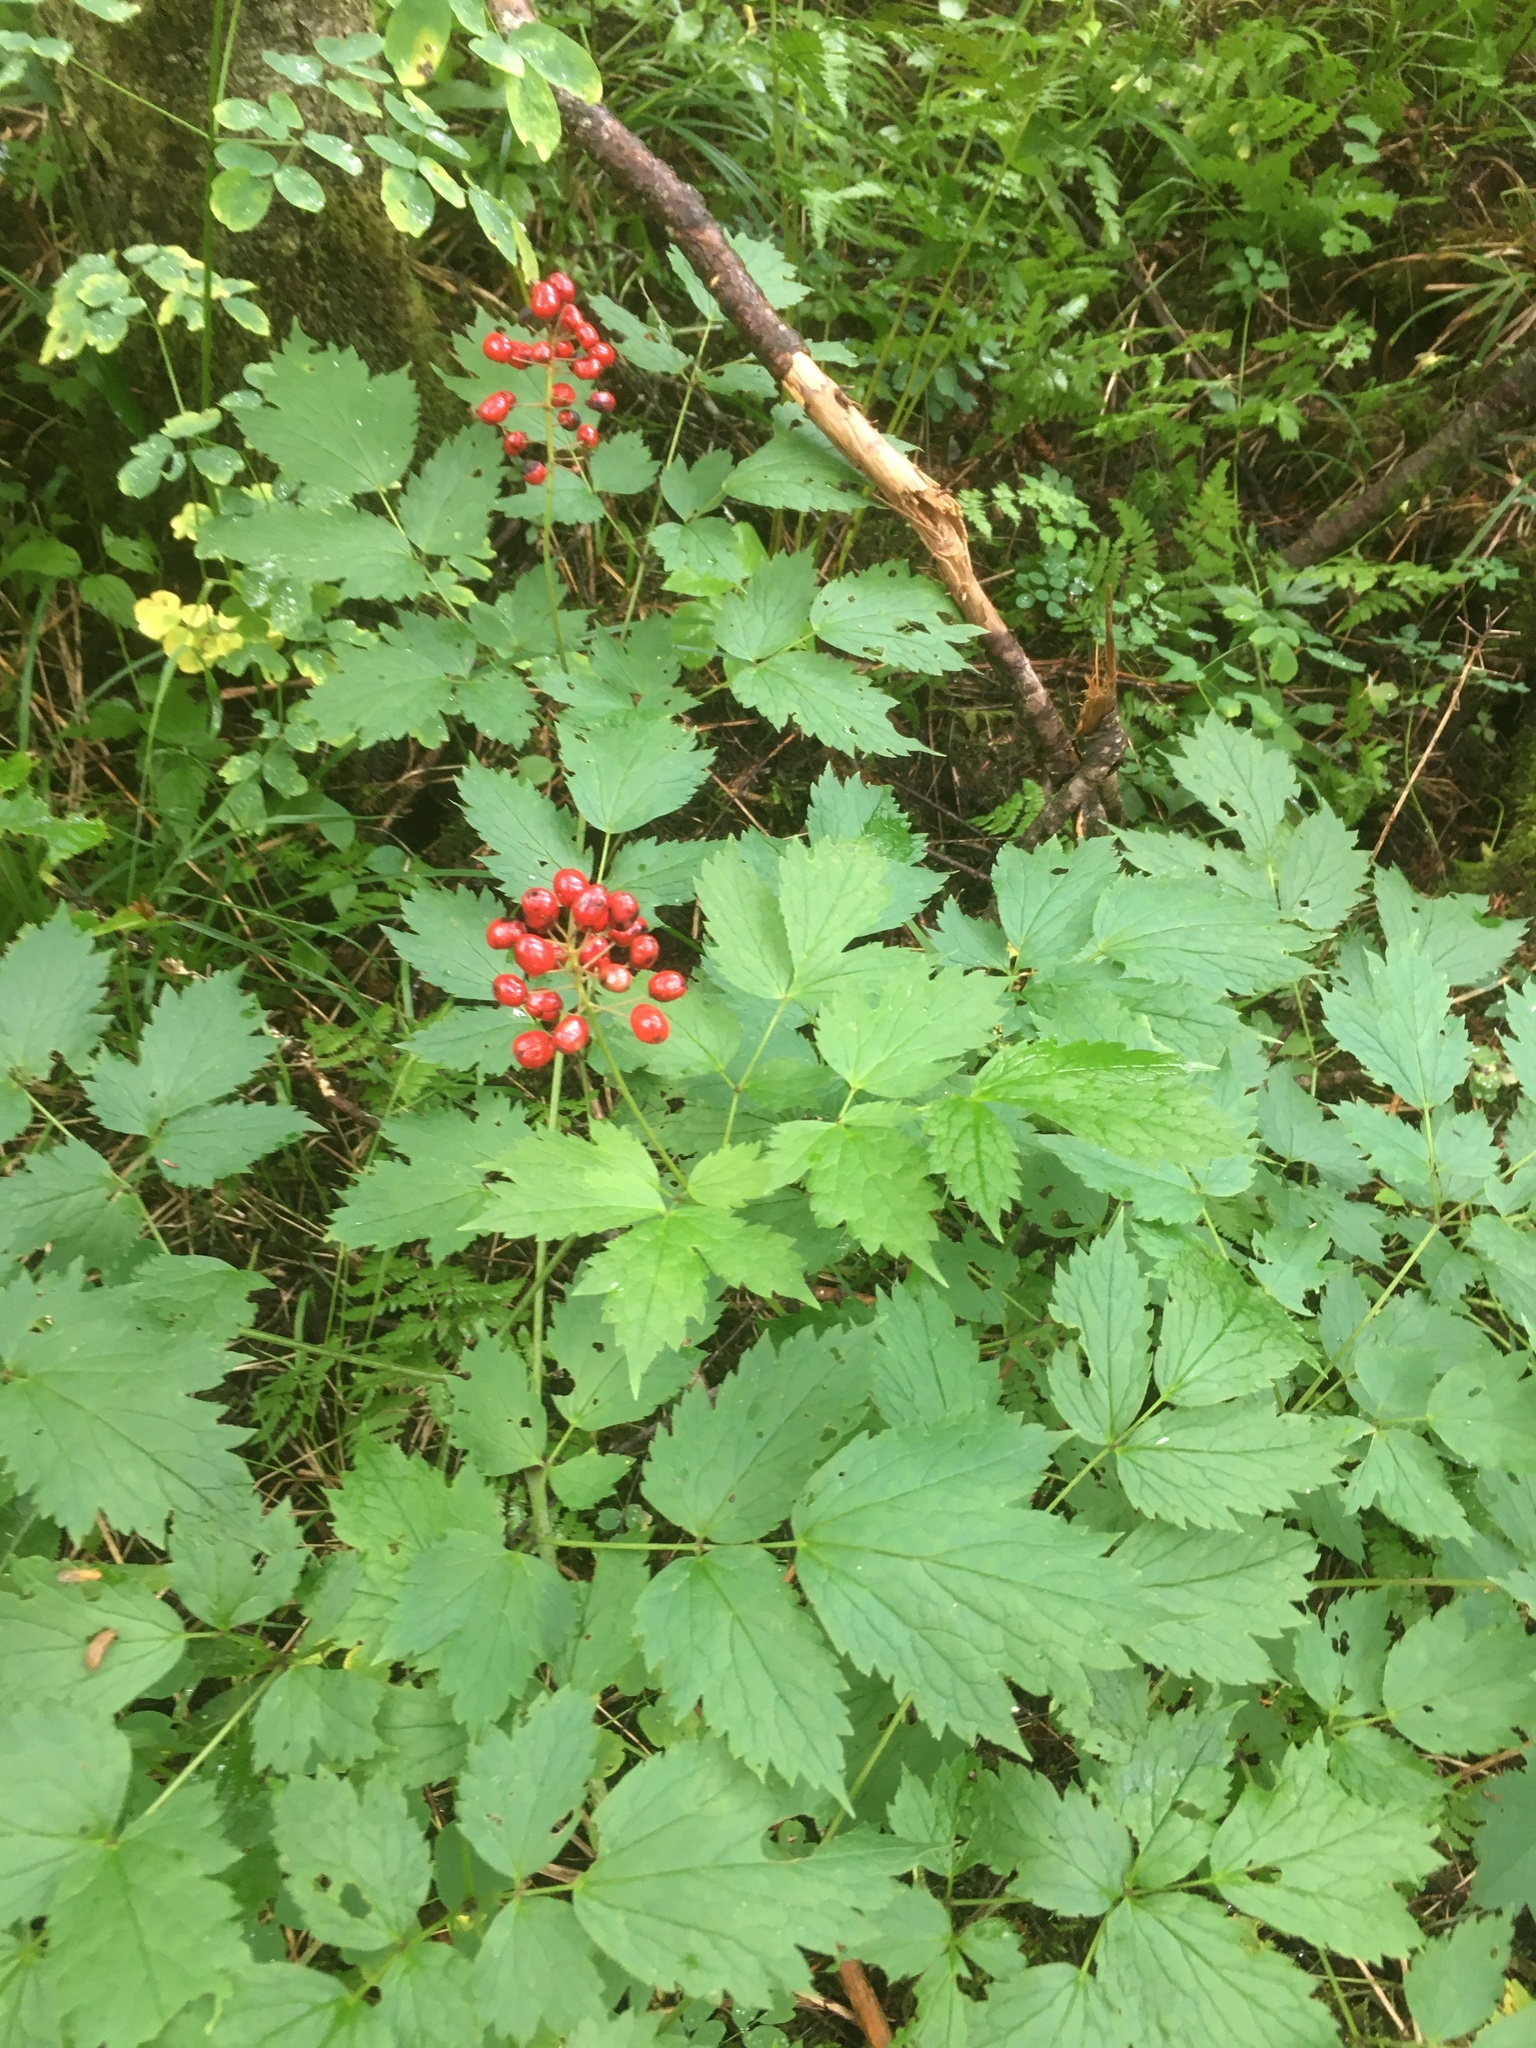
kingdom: Plantae
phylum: Tracheophyta
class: Magnoliopsida
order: Ranunculales
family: Ranunculaceae
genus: Actaea
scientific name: Actaea rubra
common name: Red baneberry
